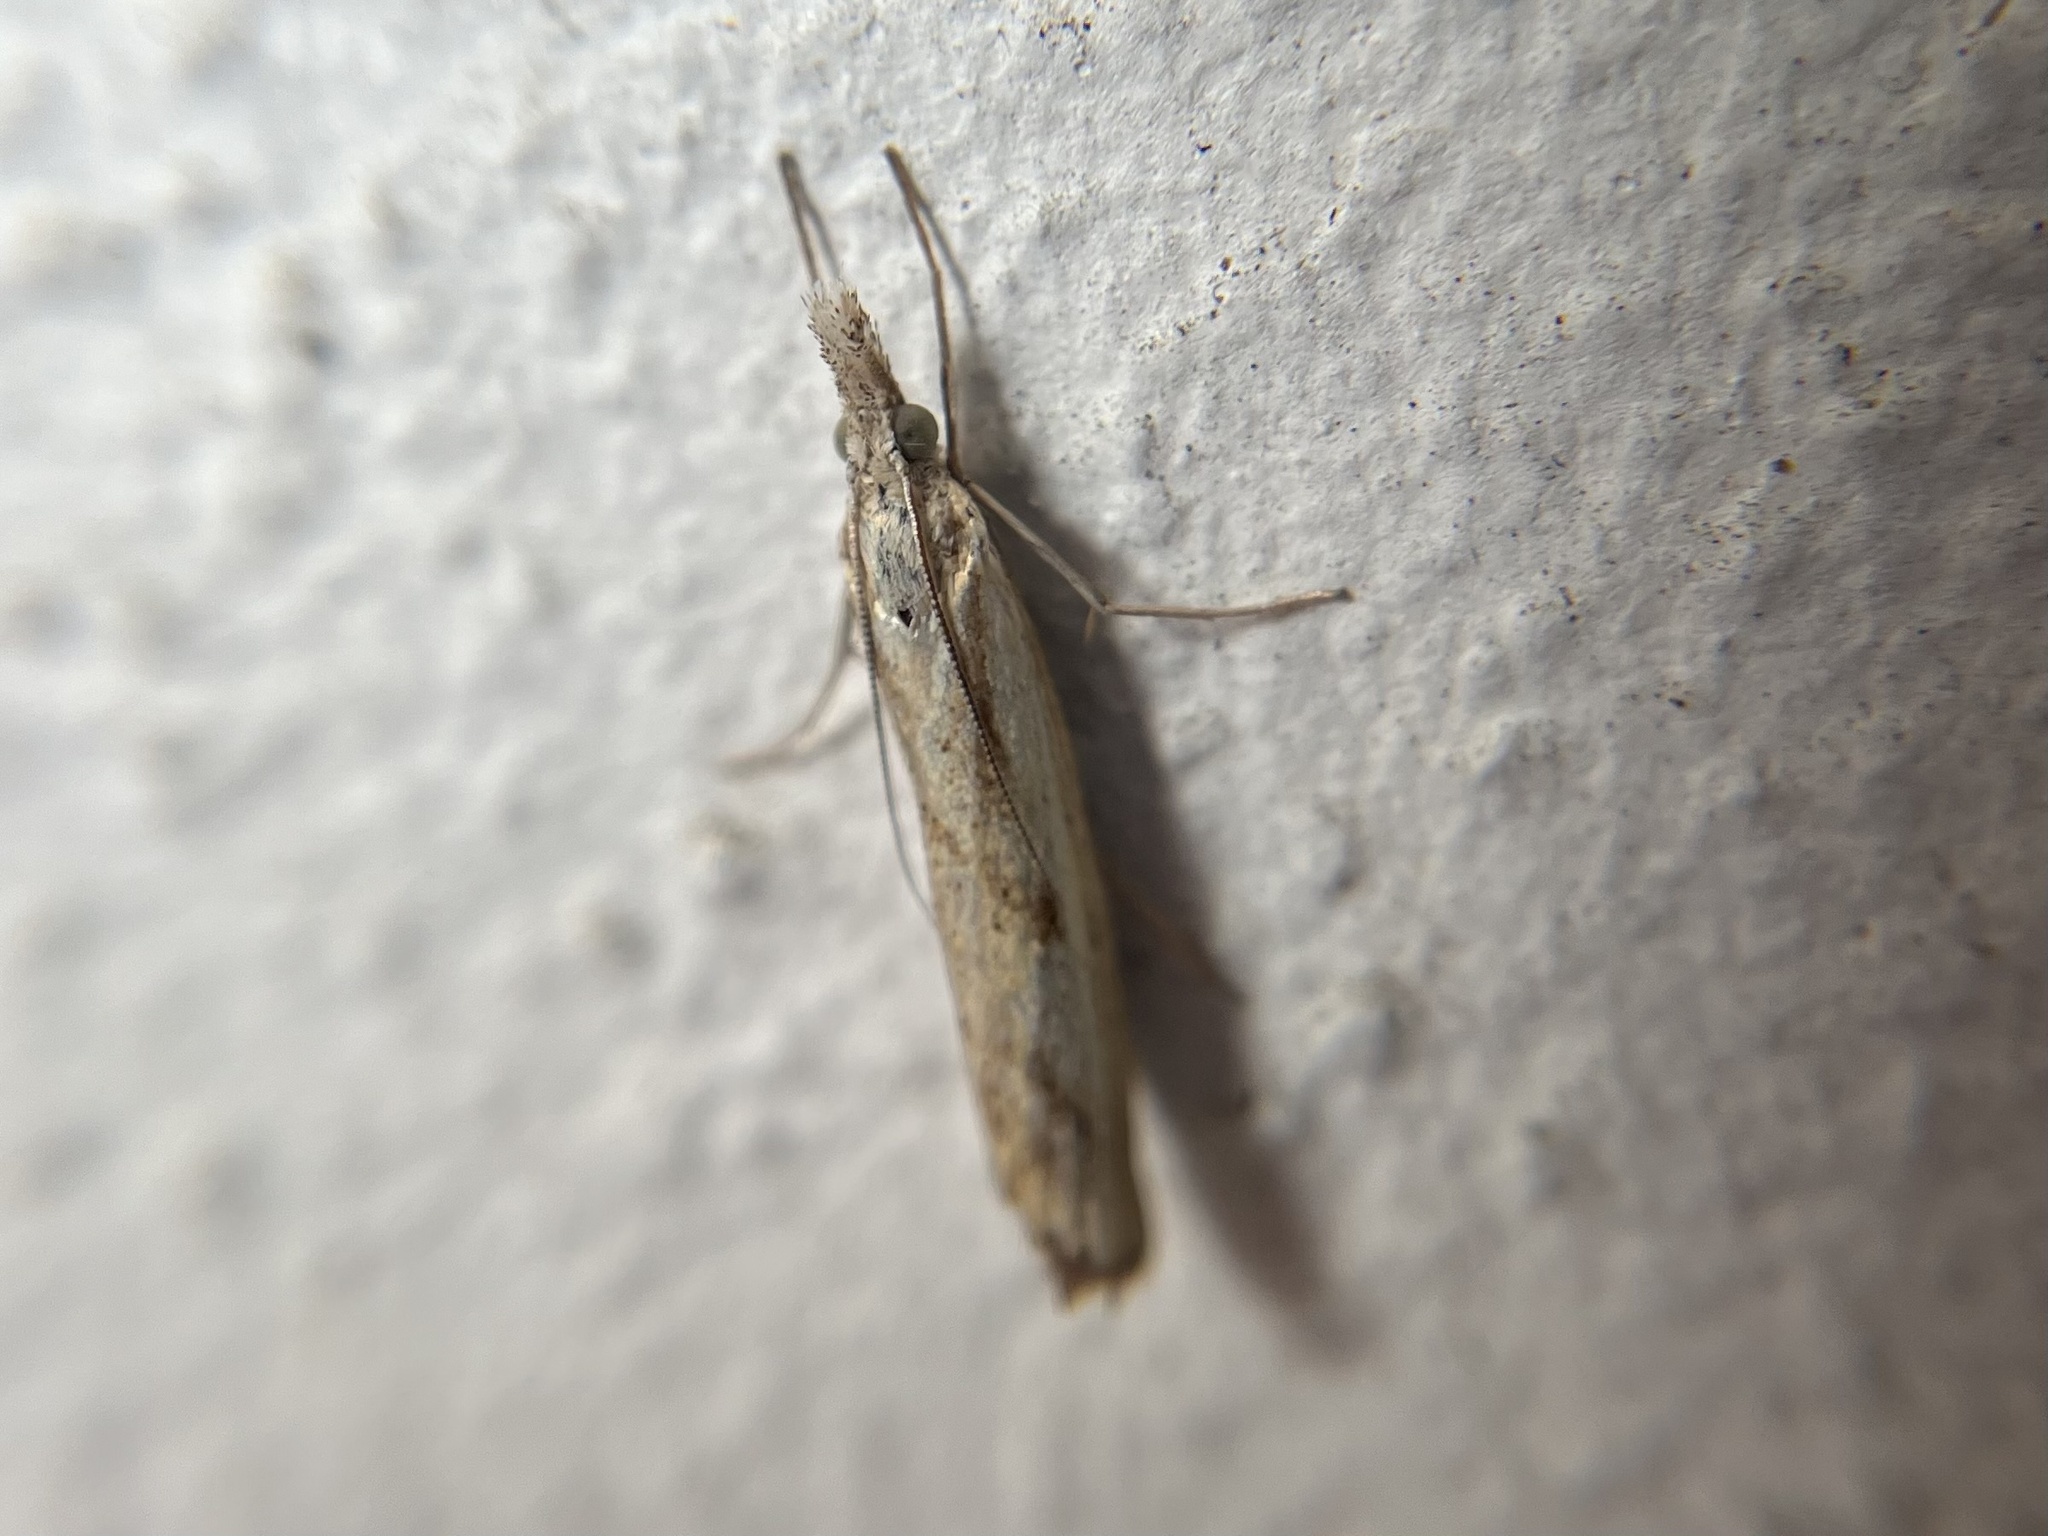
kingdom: Animalia
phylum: Arthropoda
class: Insecta
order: Lepidoptera
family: Crambidae
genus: Agriphila
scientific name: Agriphila inquinatella
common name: Barred grass-veneer
